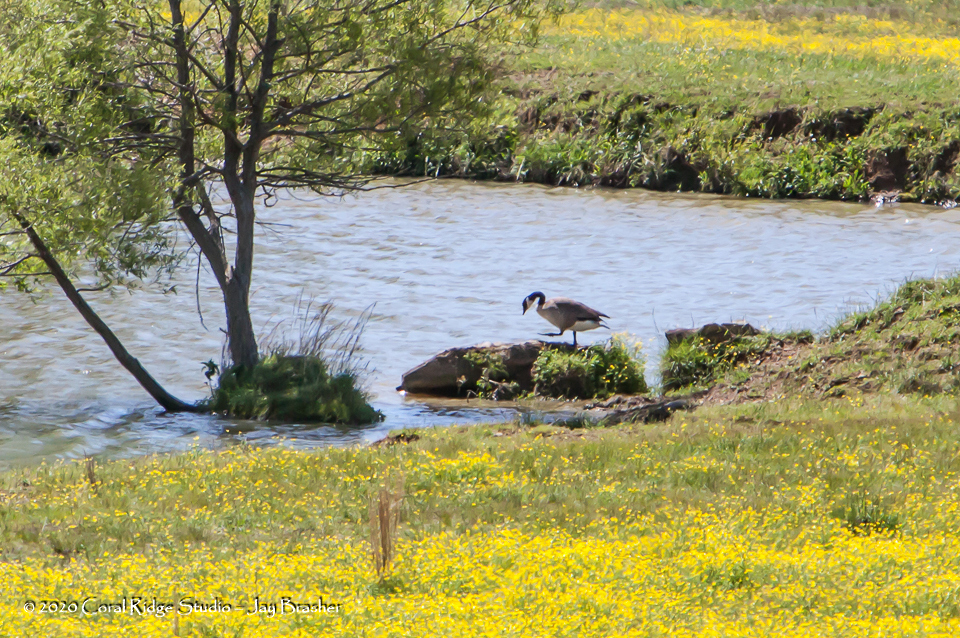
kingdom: Animalia
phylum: Chordata
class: Aves
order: Anseriformes
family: Anatidae
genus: Branta
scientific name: Branta canadensis
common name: Canada goose
